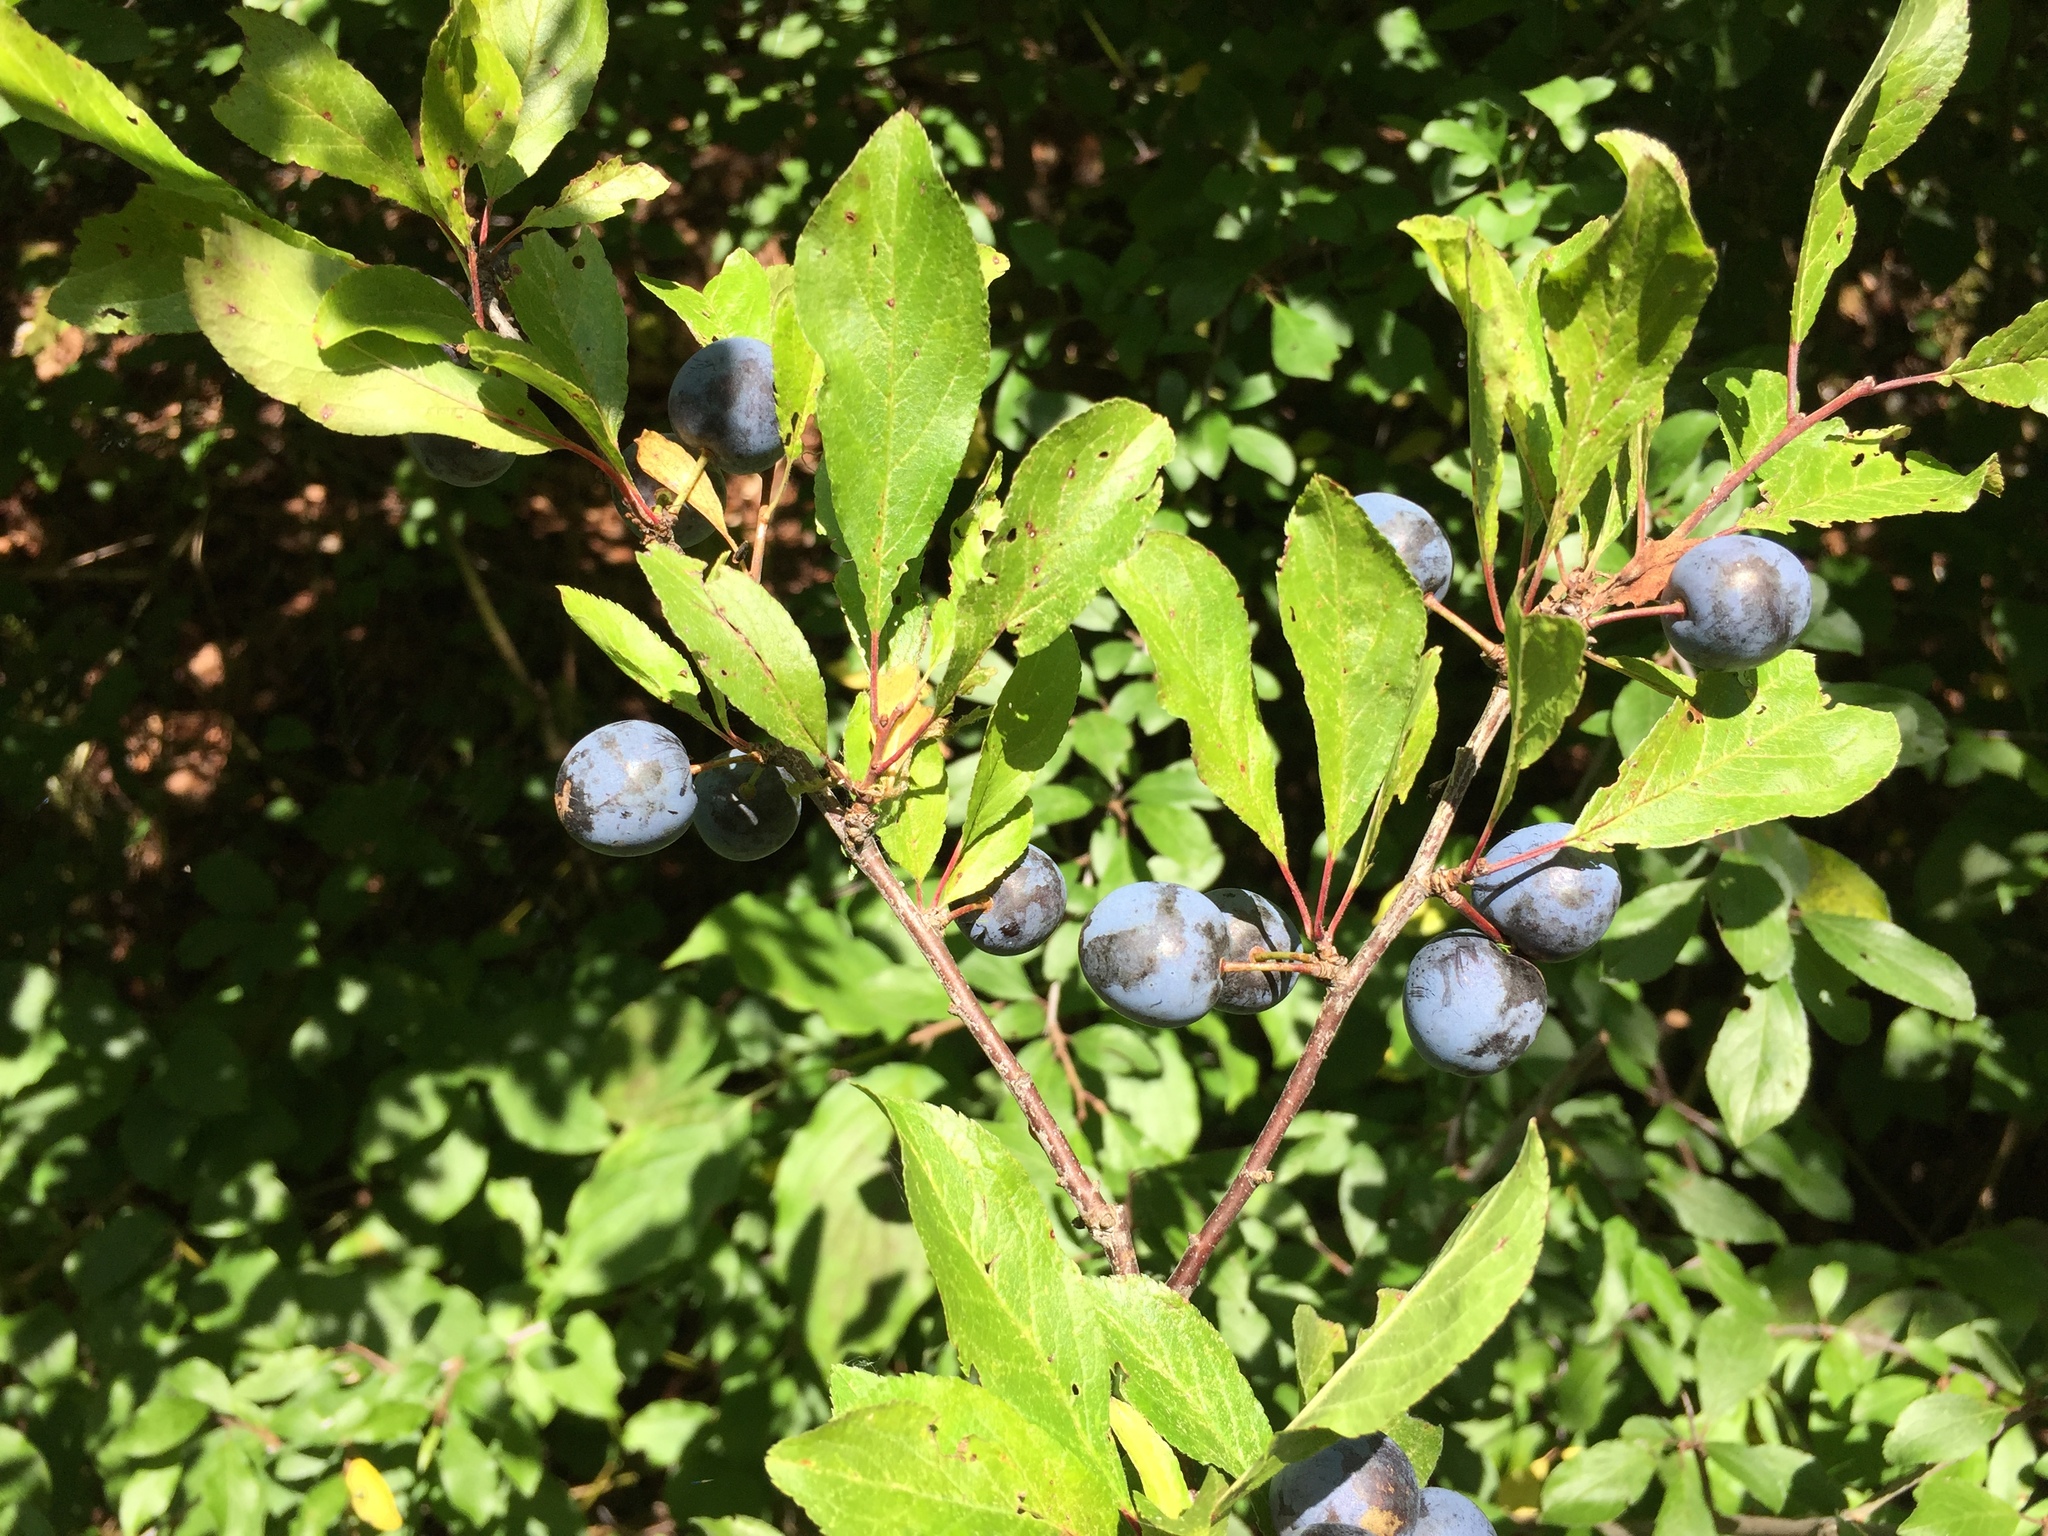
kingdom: Plantae
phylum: Tracheophyta
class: Magnoliopsida
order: Rosales
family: Rosaceae
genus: Prunus
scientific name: Prunus spinosa
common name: Blackthorn
